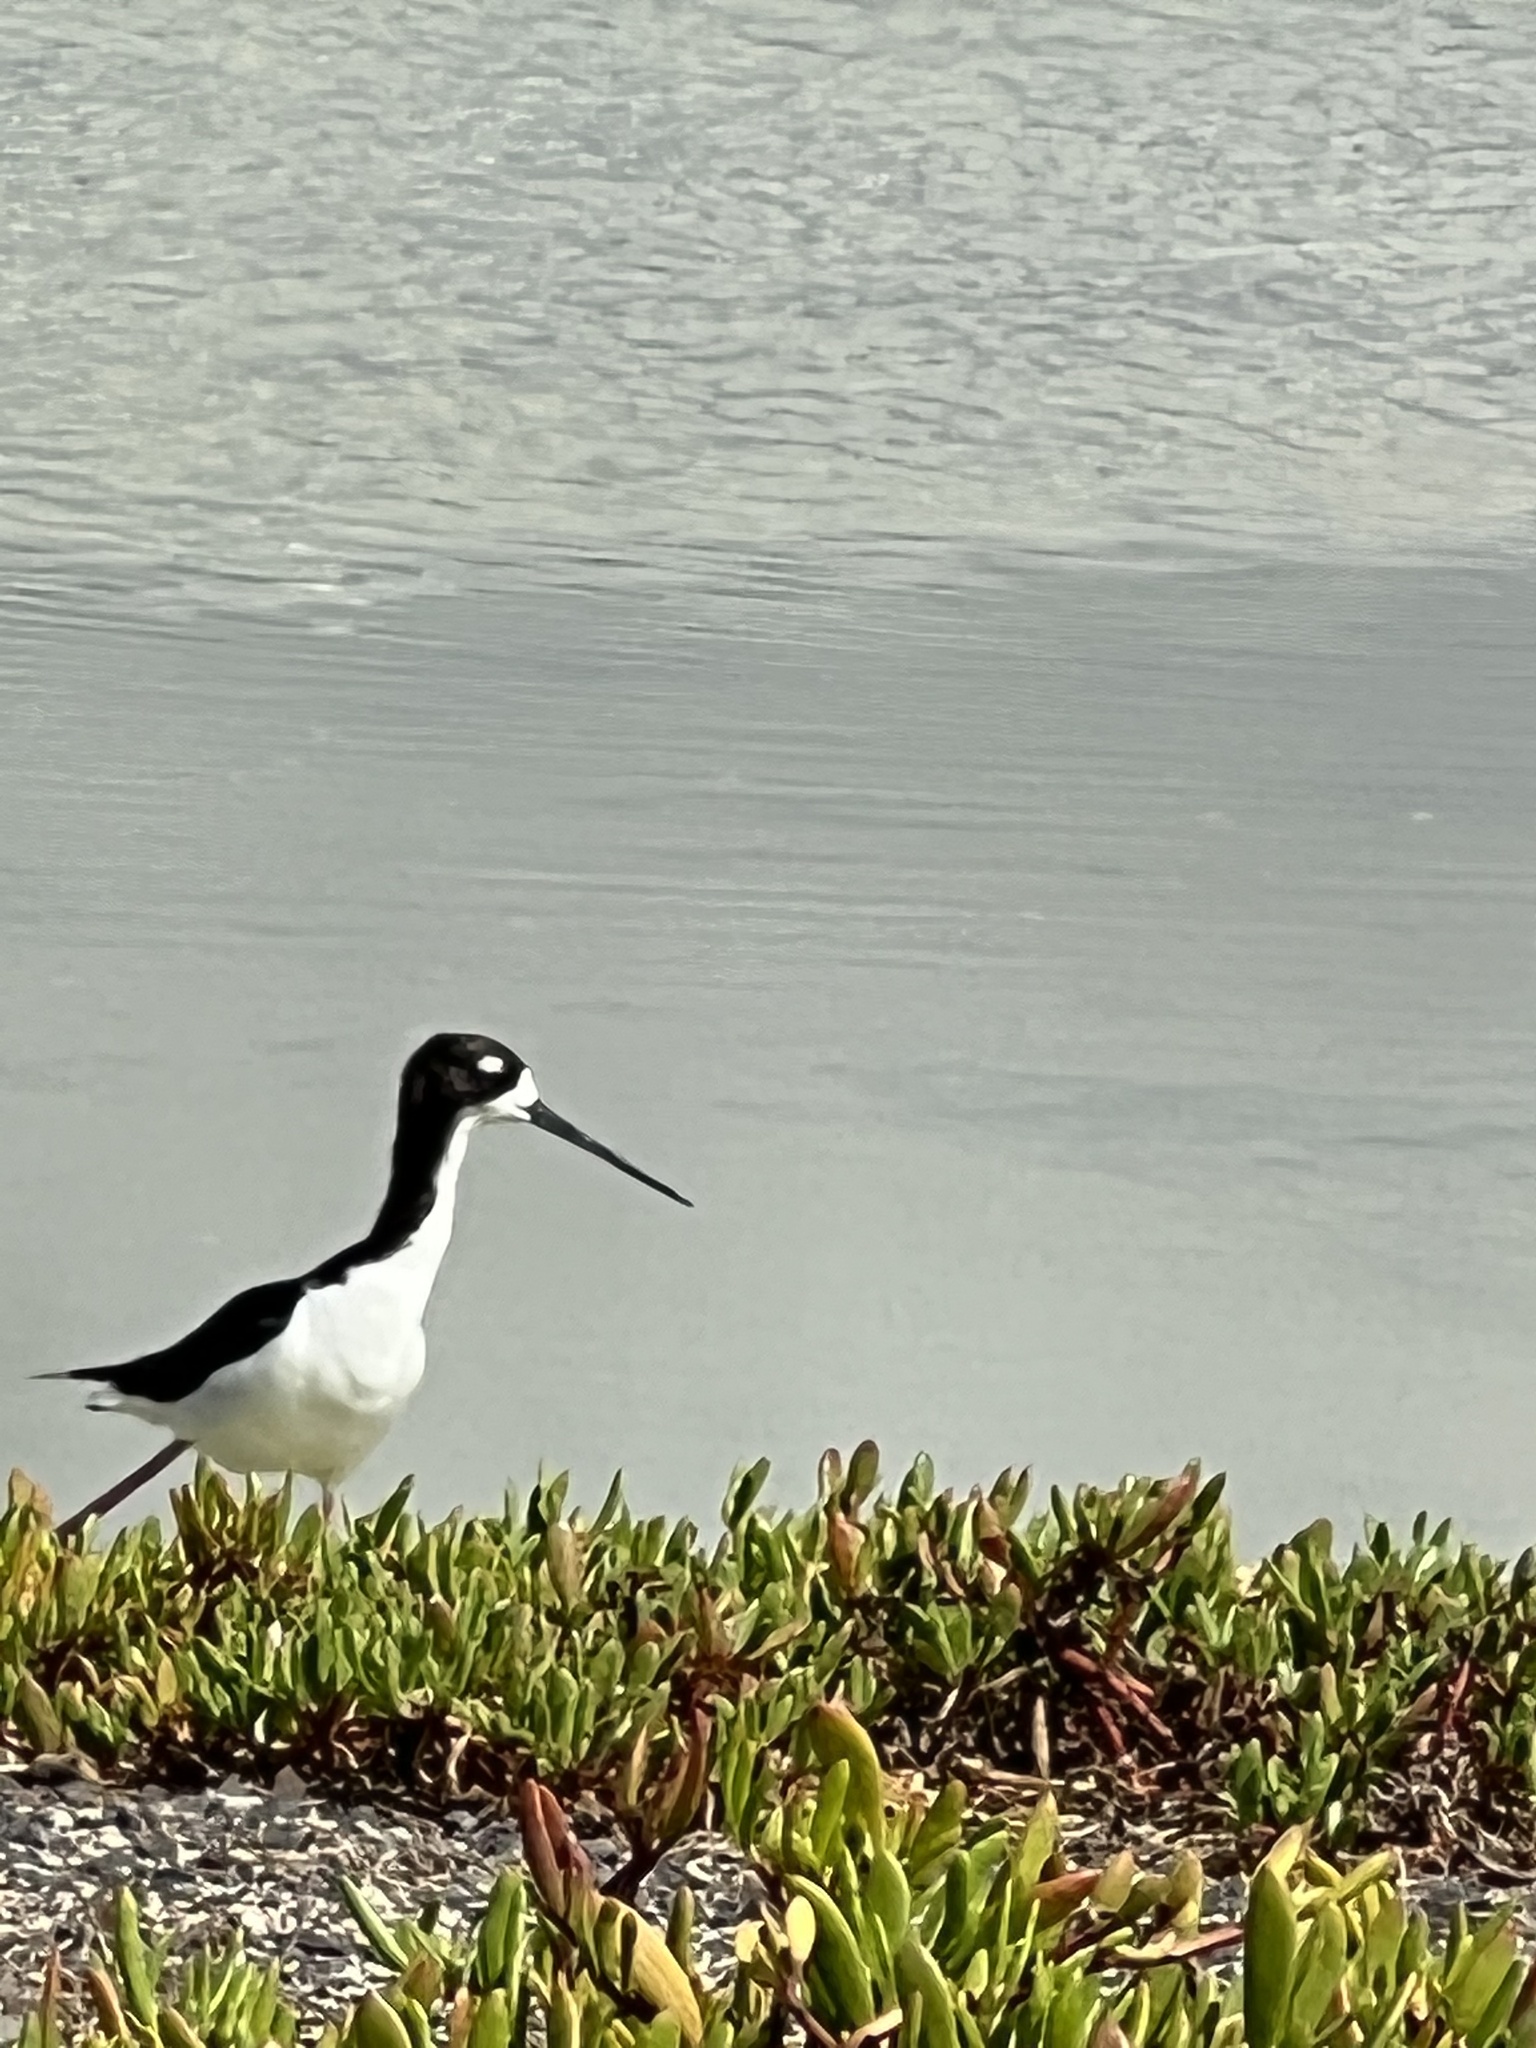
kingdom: Animalia
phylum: Chordata
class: Aves
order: Charadriiformes
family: Recurvirostridae
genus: Himantopus
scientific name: Himantopus mexicanus
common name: Black-necked stilt
